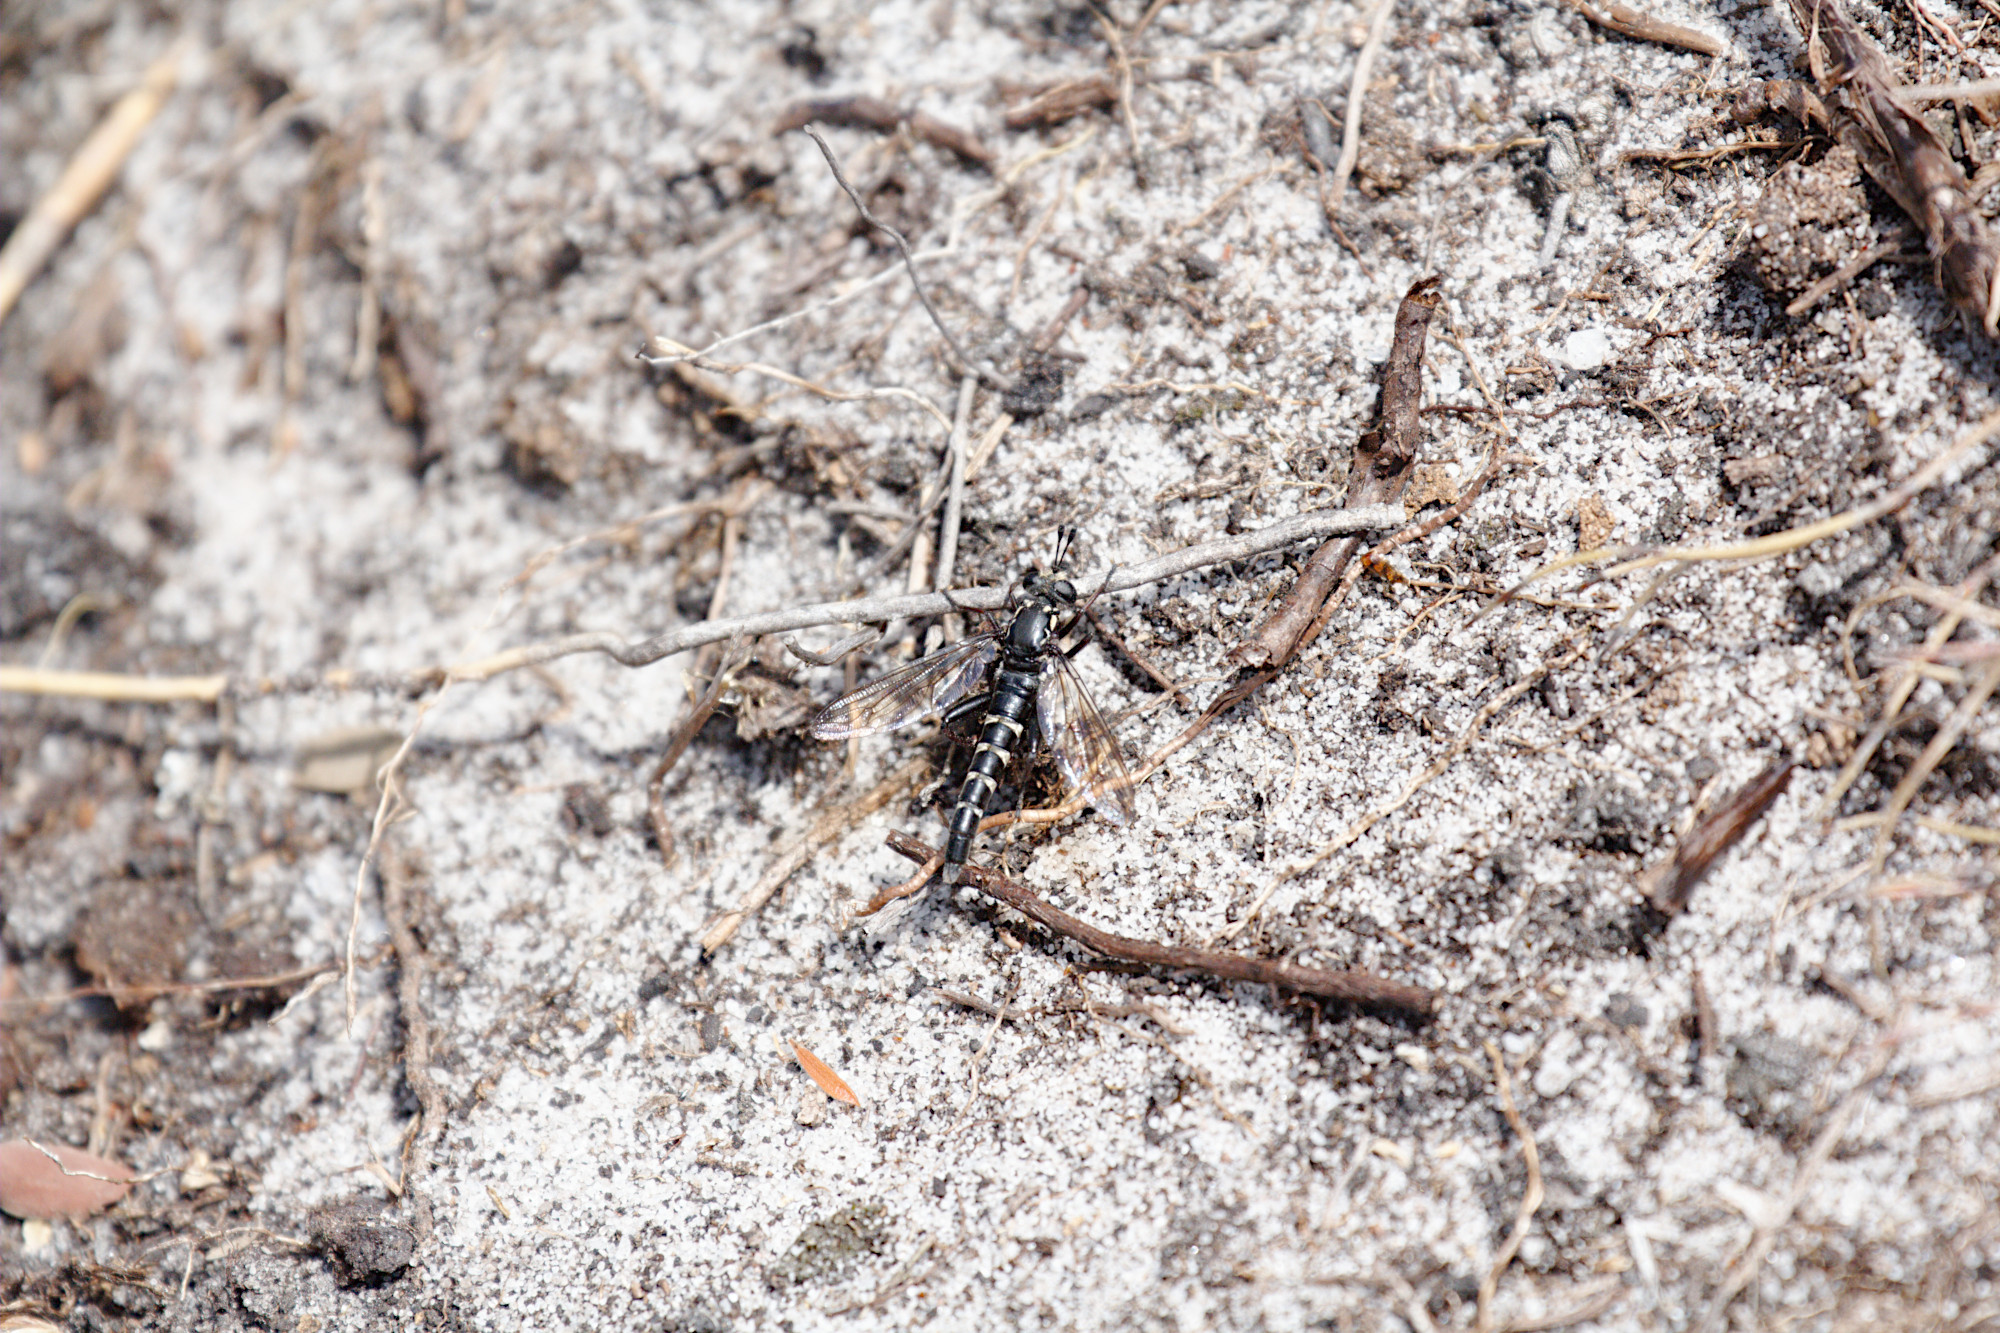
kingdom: Animalia
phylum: Arthropoda
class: Insecta
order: Diptera
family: Mydidae
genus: Miltinus
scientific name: Miltinus viduatus
